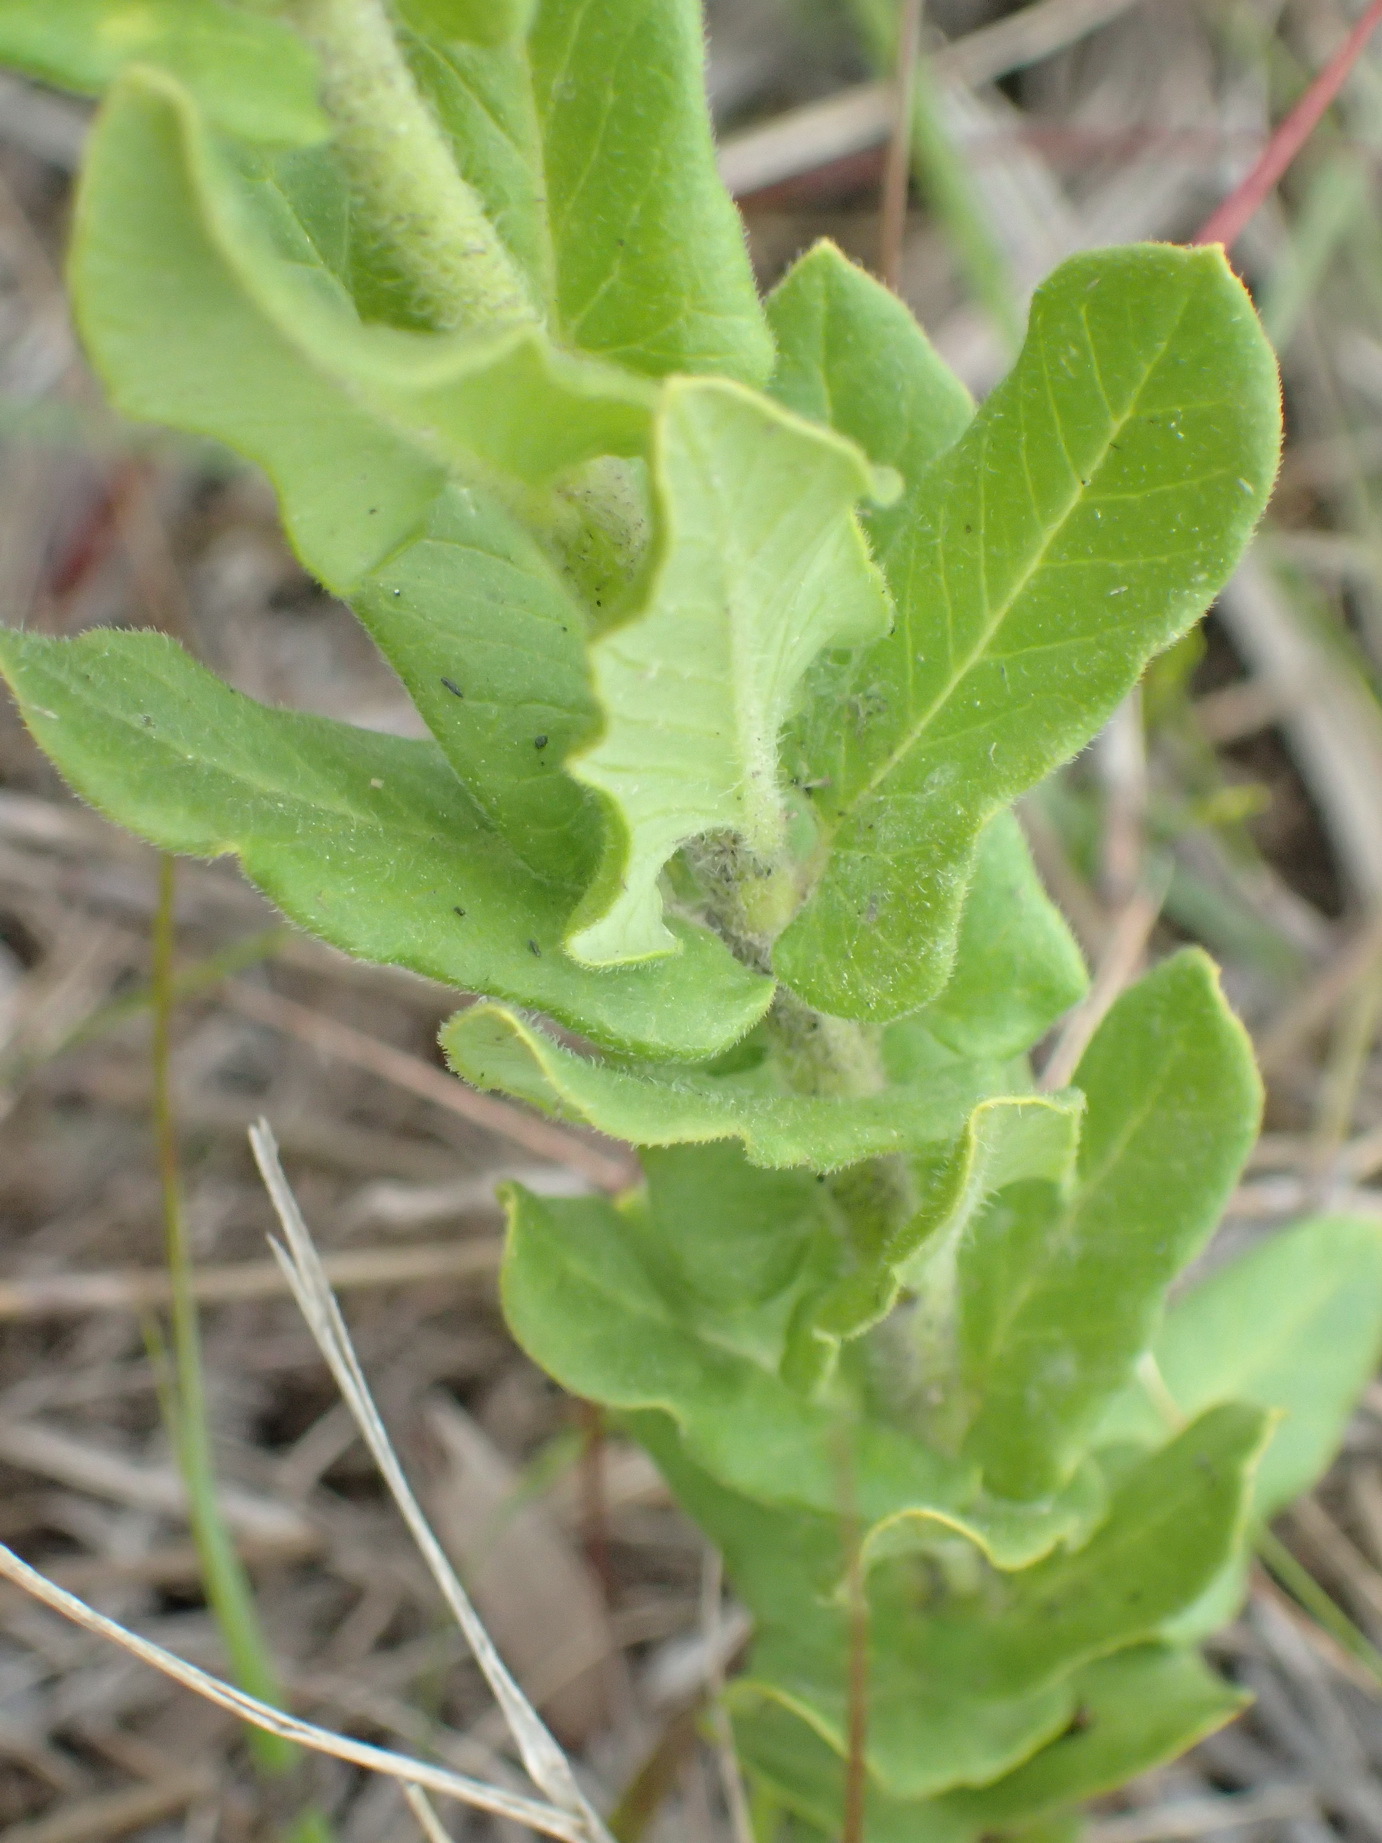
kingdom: Plantae
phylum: Tracheophyta
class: Magnoliopsida
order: Gentianales
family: Apocynaceae
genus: Schizoglossum
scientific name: Schizoglossum cordifolium
